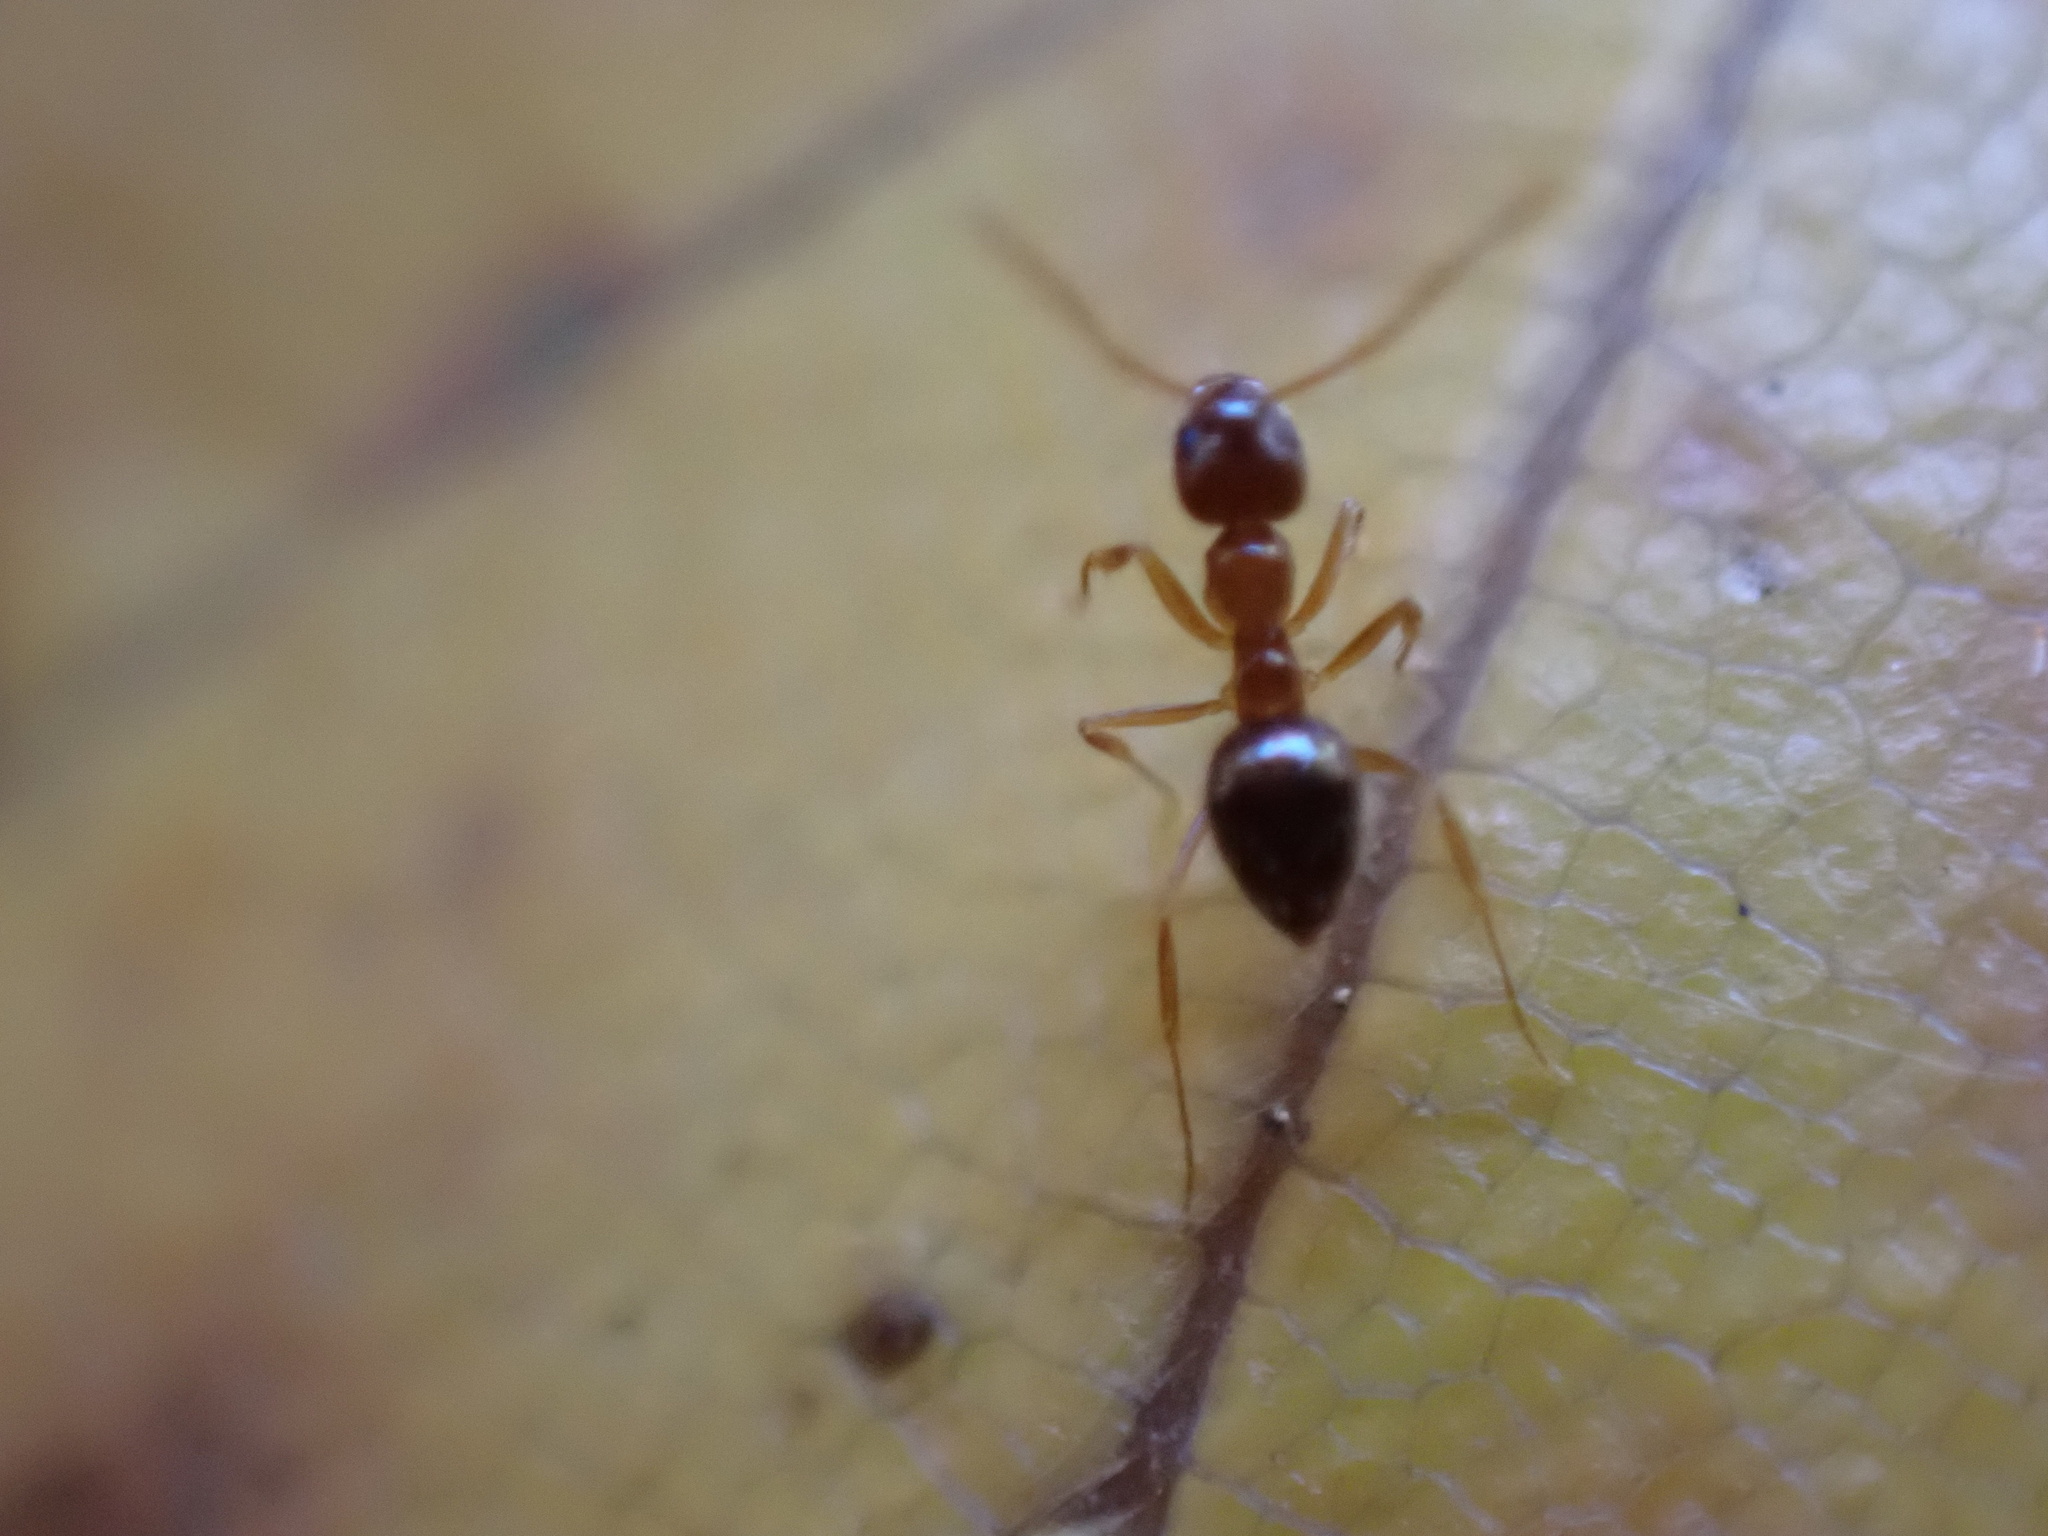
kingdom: Animalia
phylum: Arthropoda
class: Insecta
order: Hymenoptera
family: Formicidae
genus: Paratrechina
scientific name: Paratrechina flavipes
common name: Eastern asian formicine ant
